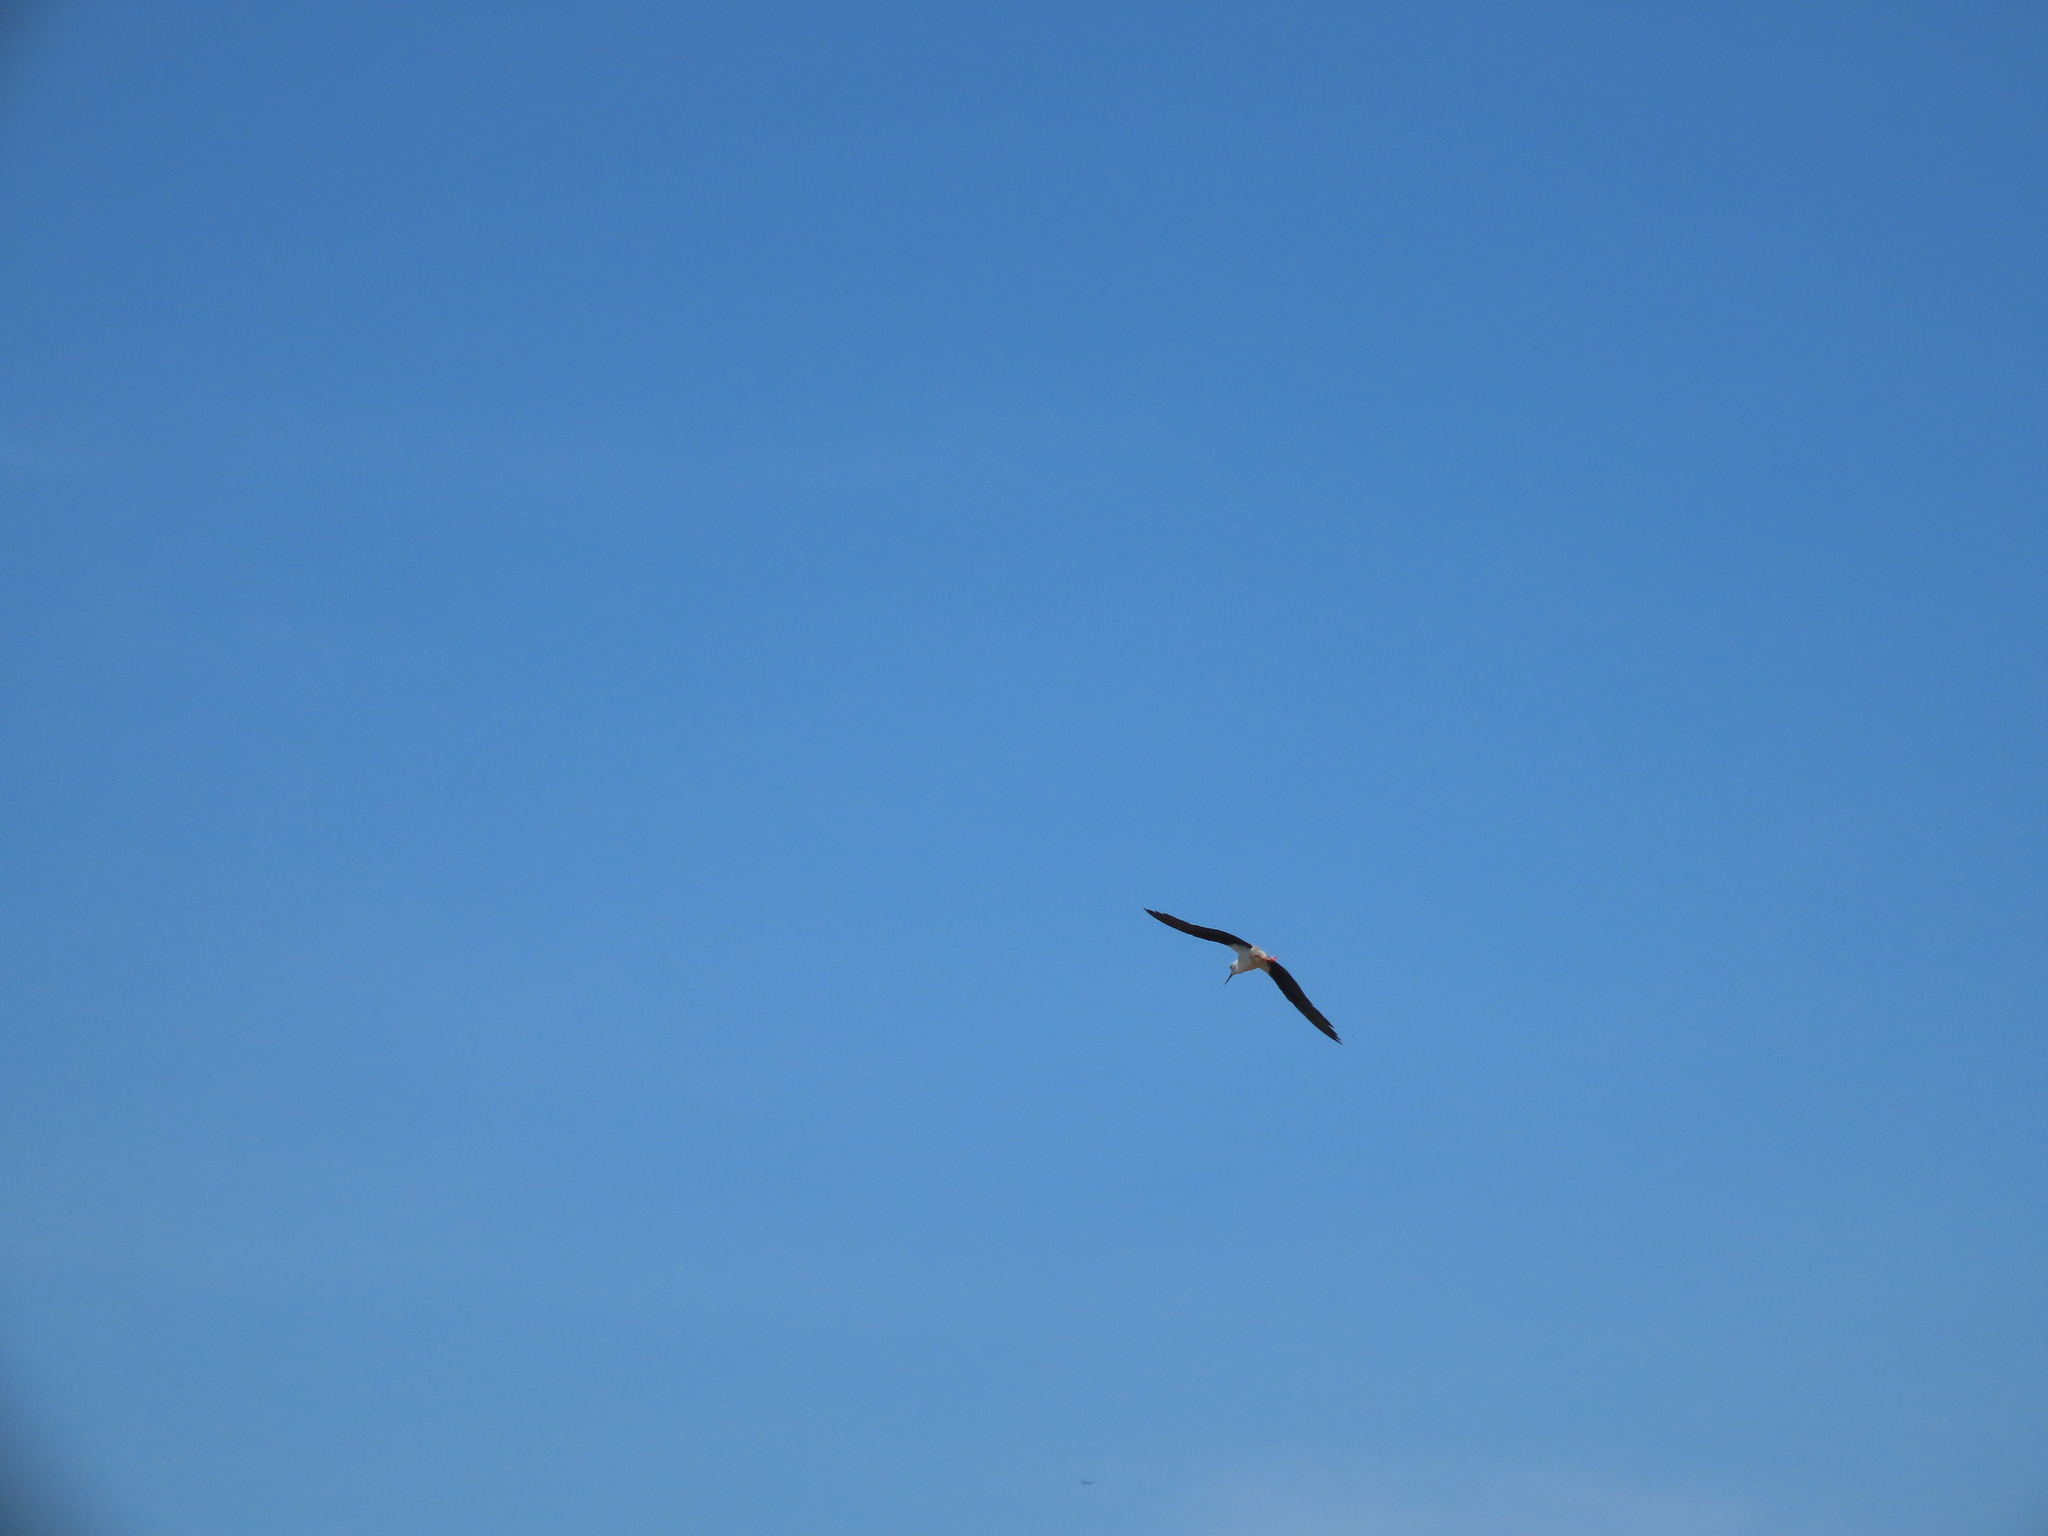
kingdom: Animalia
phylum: Chordata
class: Aves
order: Charadriiformes
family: Recurvirostridae
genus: Himantopus
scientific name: Himantopus himantopus
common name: Black-winged stilt
